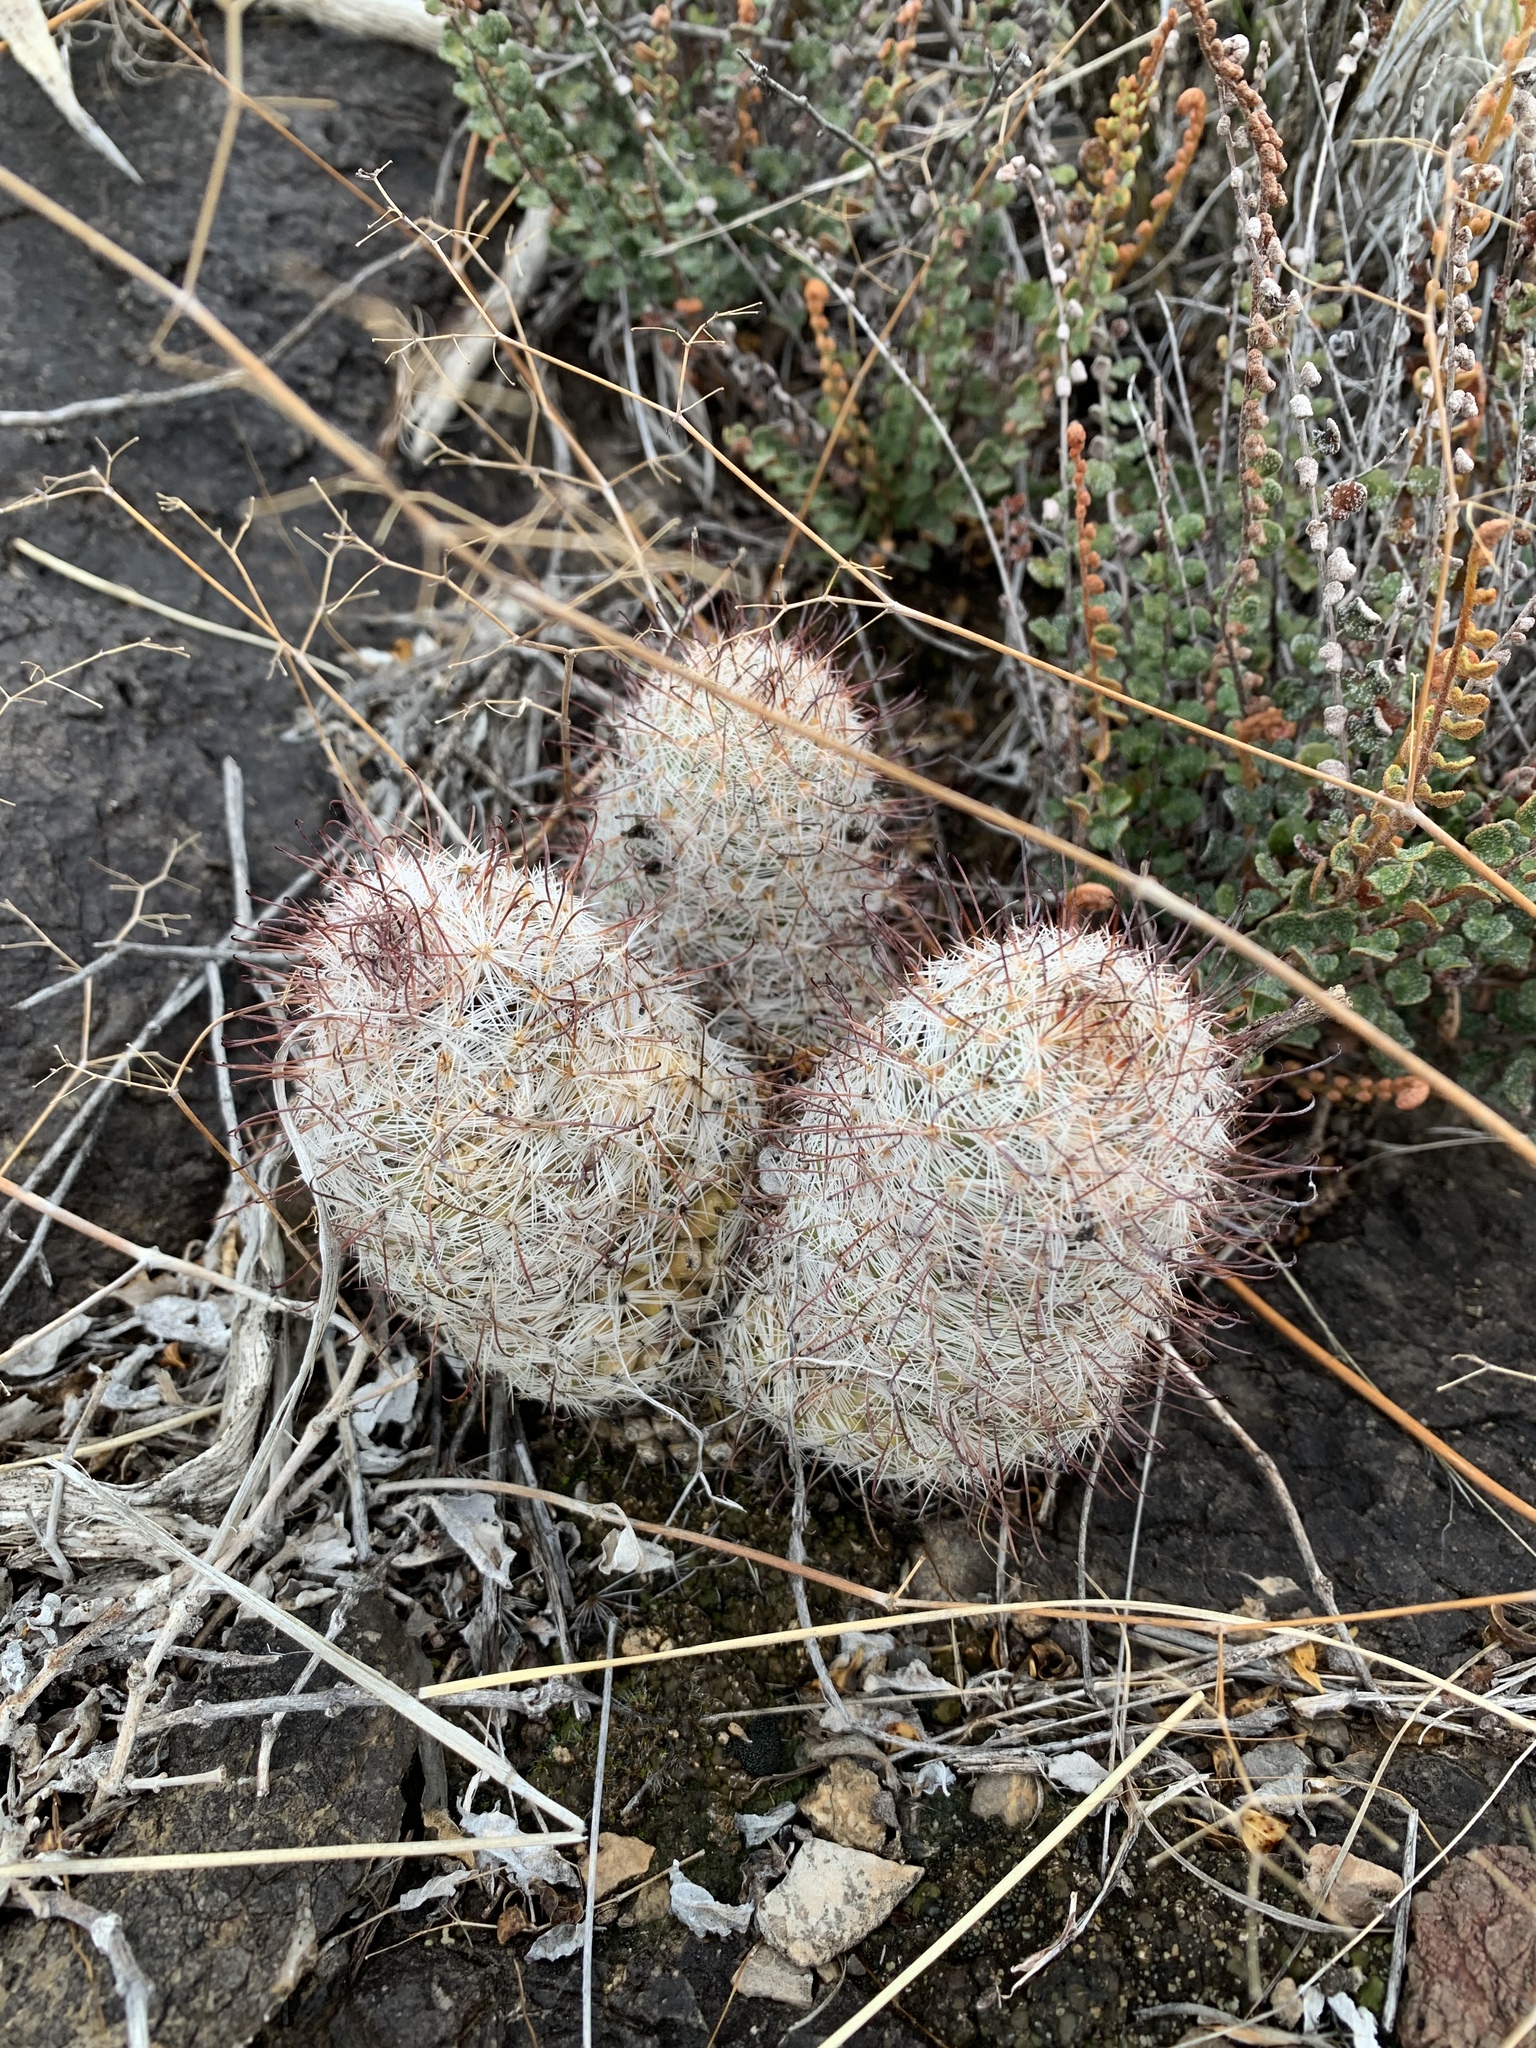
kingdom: Plantae
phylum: Tracheophyta
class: Magnoliopsida
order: Caryophyllales
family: Cactaceae
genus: Cochemiea
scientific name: Cochemiea grahamii
